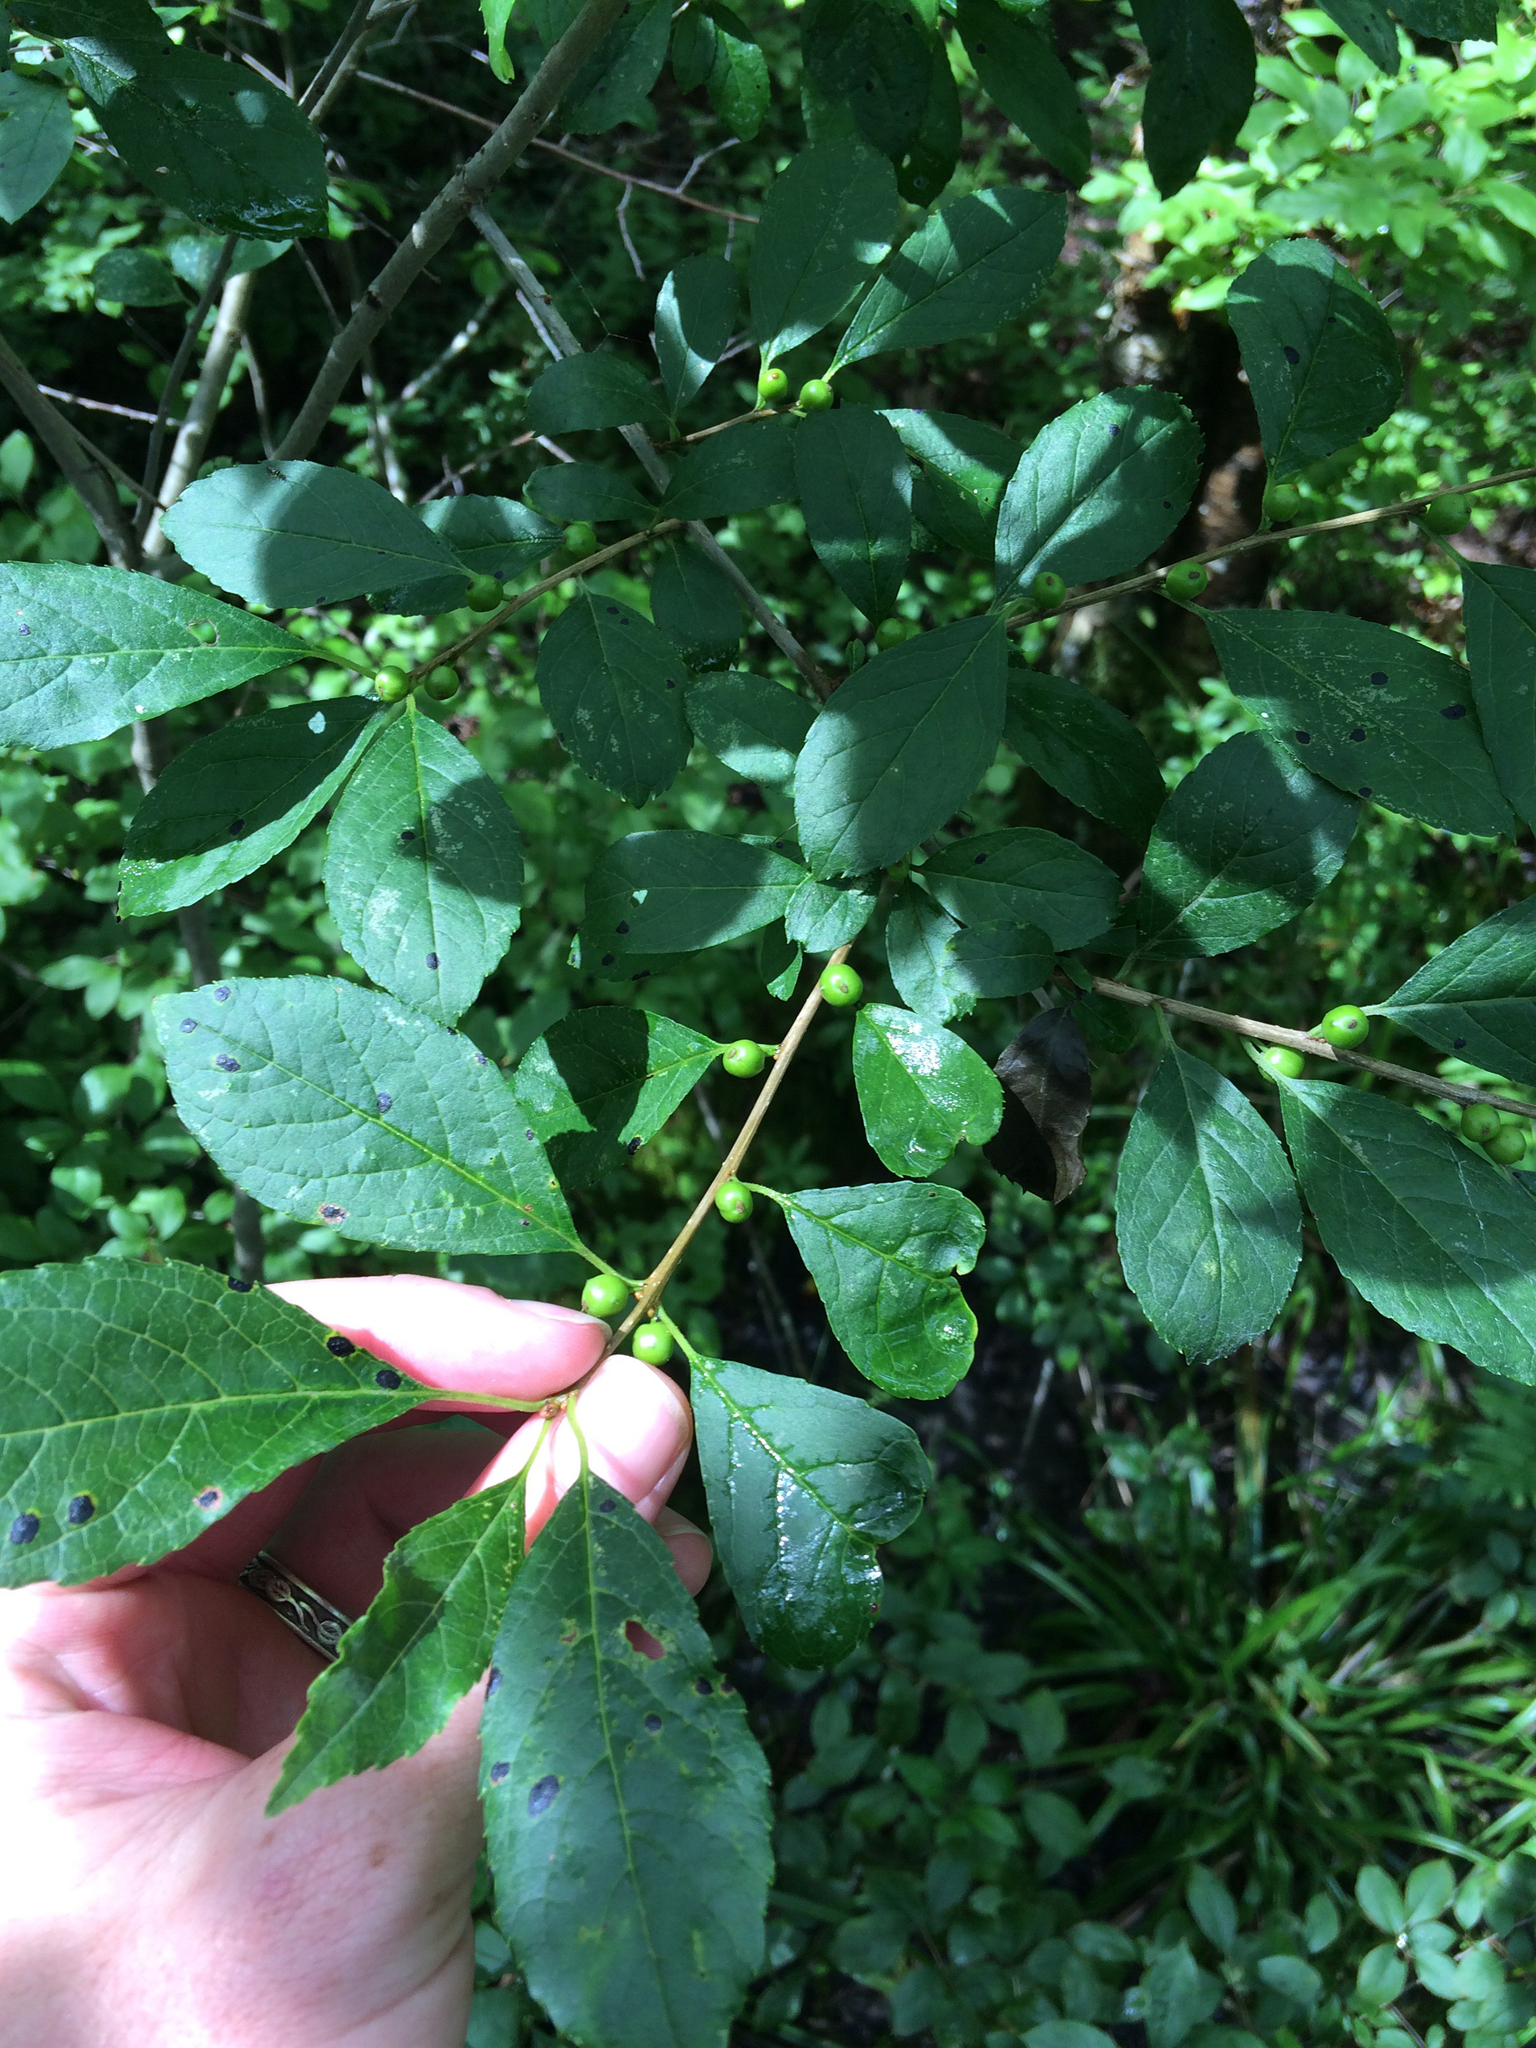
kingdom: Plantae
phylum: Tracheophyta
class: Magnoliopsida
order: Aquifoliales
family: Aquifoliaceae
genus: Ilex
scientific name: Ilex verticillata
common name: Virginia winterberry
